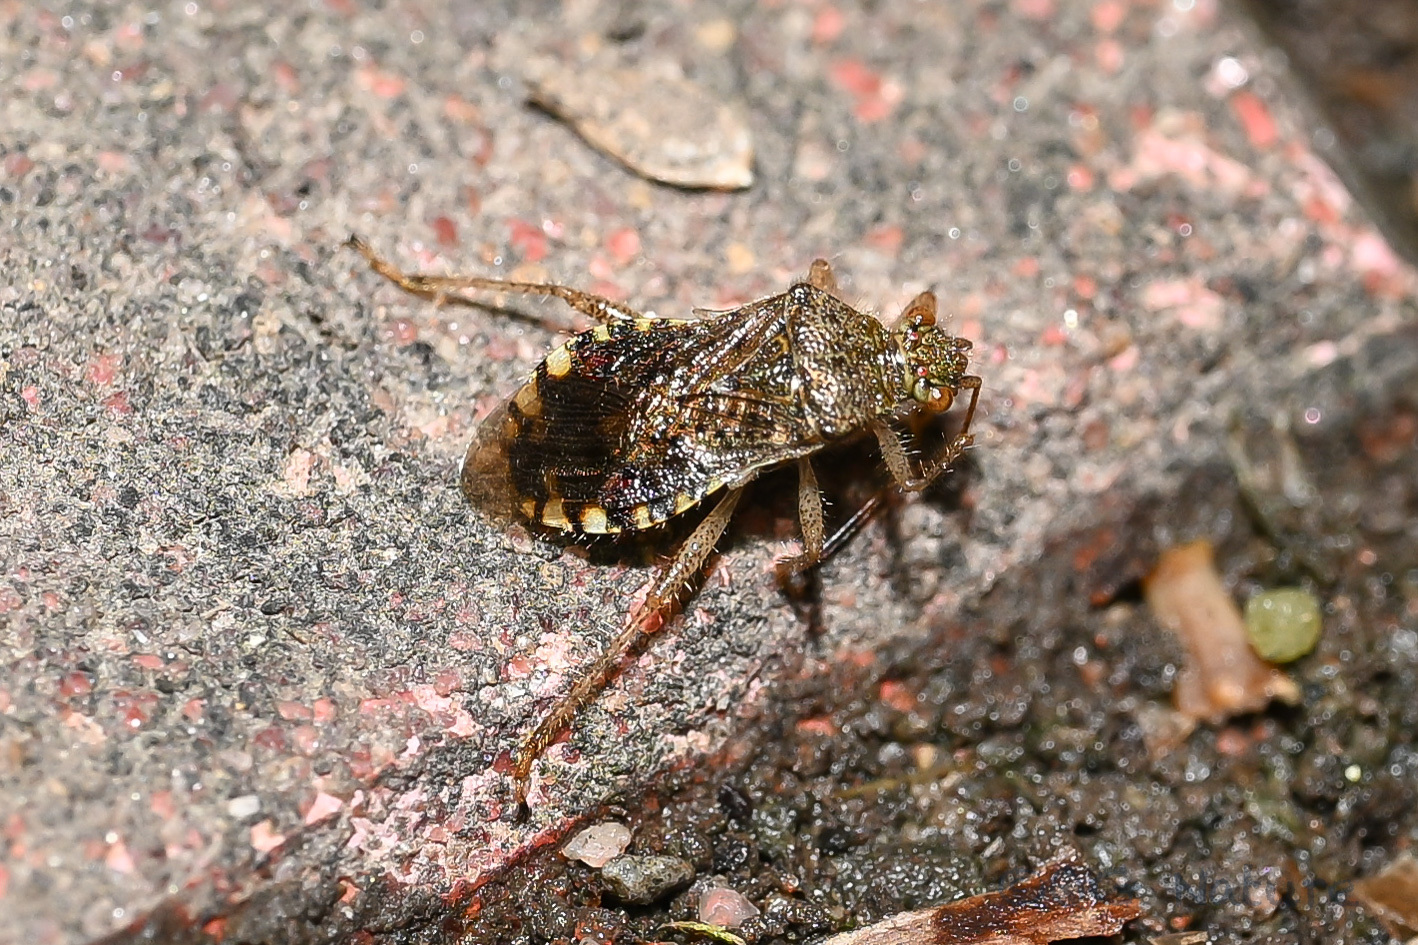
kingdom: Animalia
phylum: Arthropoda
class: Insecta
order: Hemiptera
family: Rhopalidae
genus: Rhopalus
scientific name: Rhopalus sapporensis
